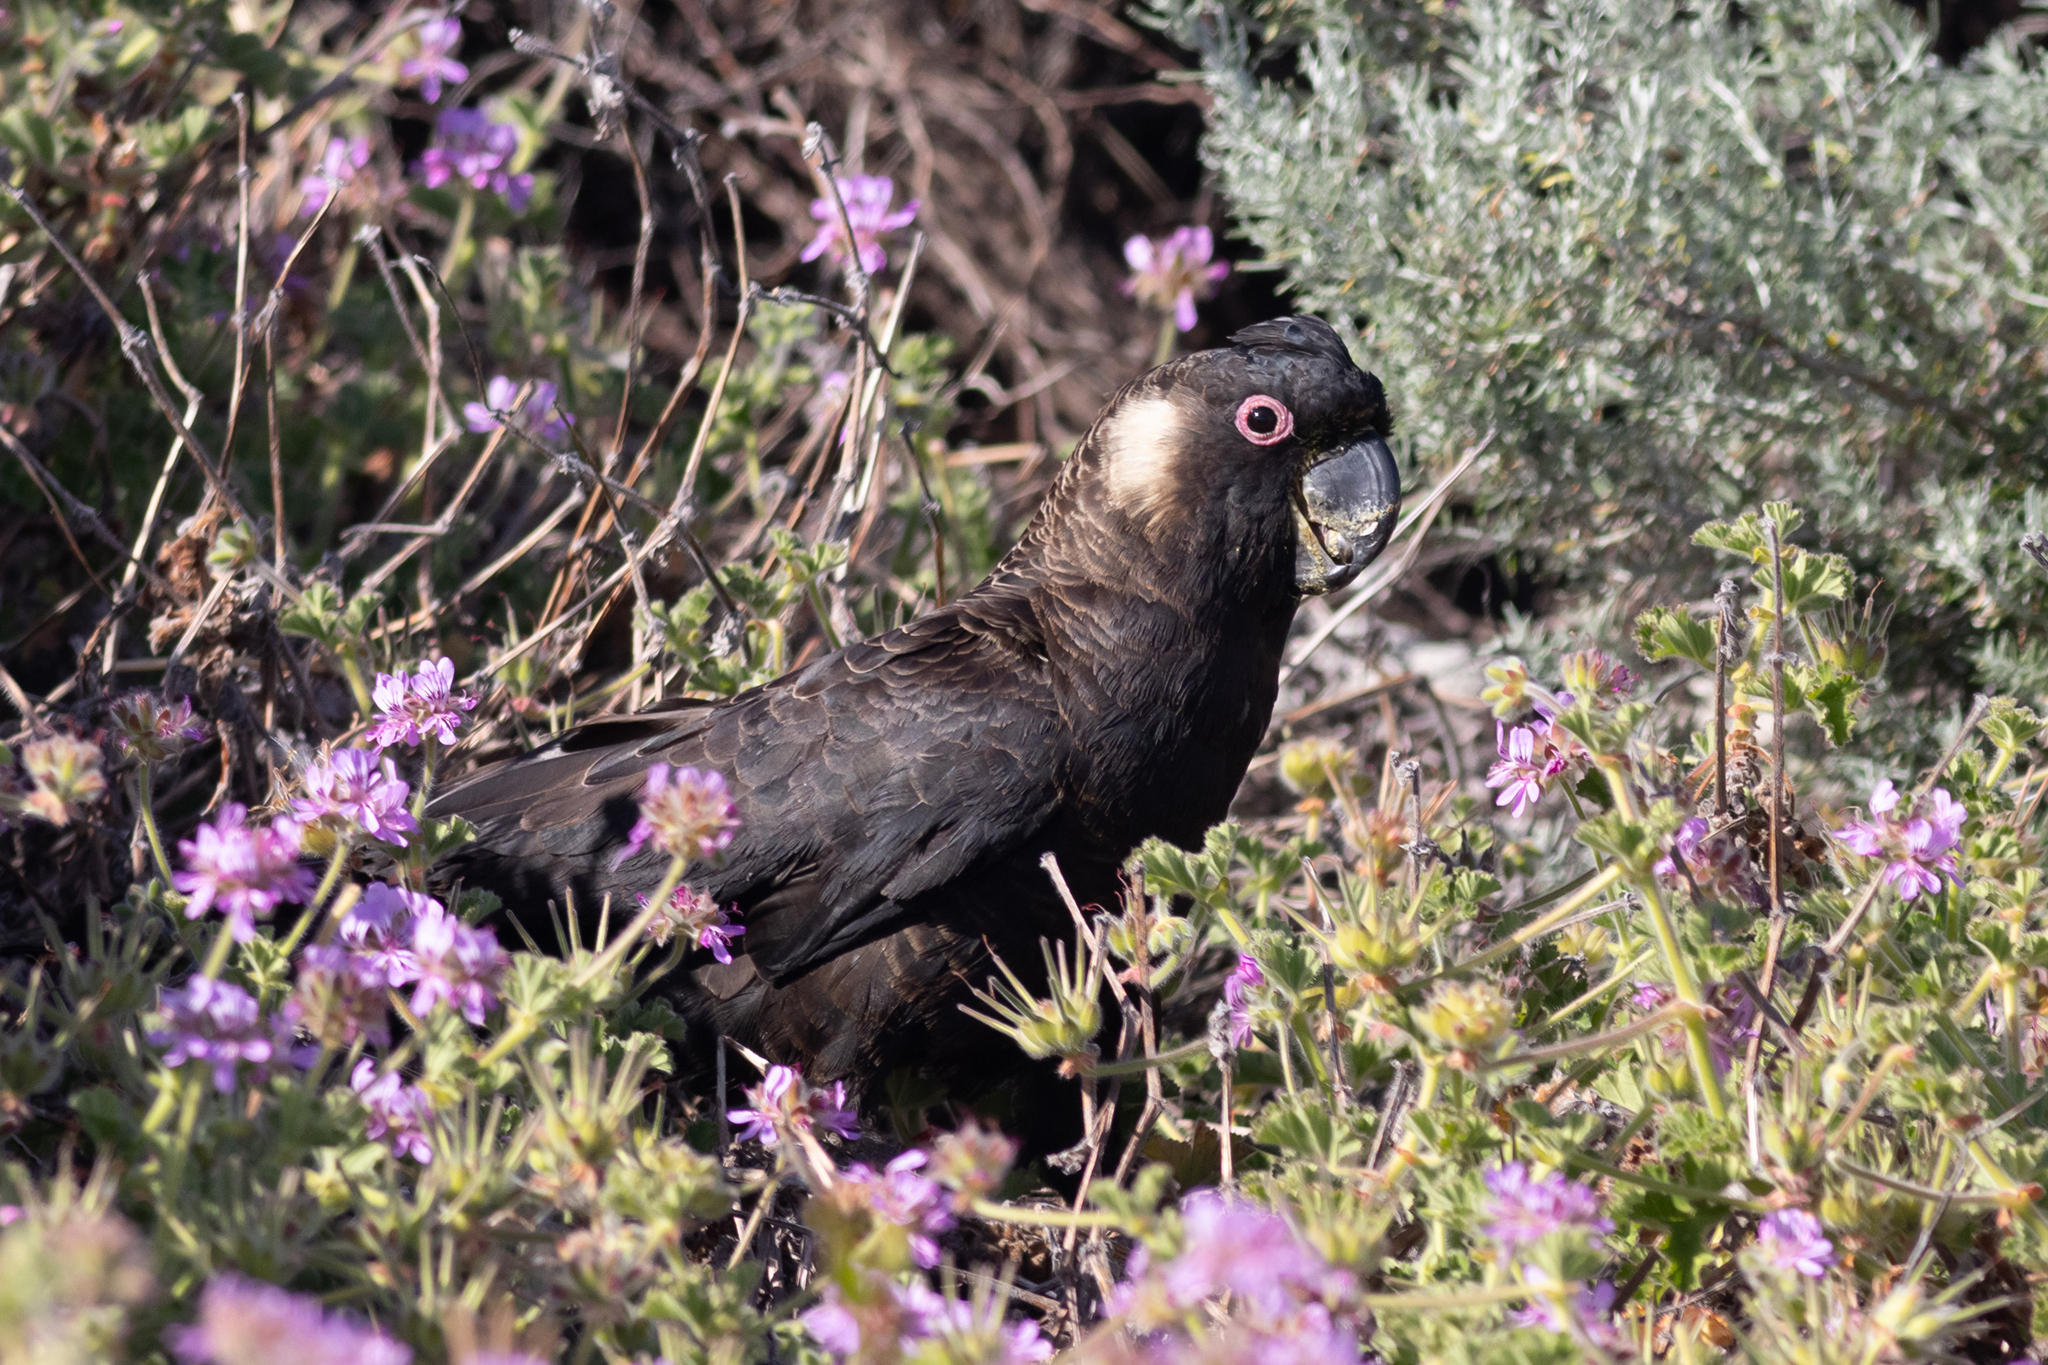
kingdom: Animalia
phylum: Chordata
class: Aves
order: Psittaciformes
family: Cacatuidae
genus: Zanda
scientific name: Zanda latirostris
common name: Short-billed black-cockatoo
